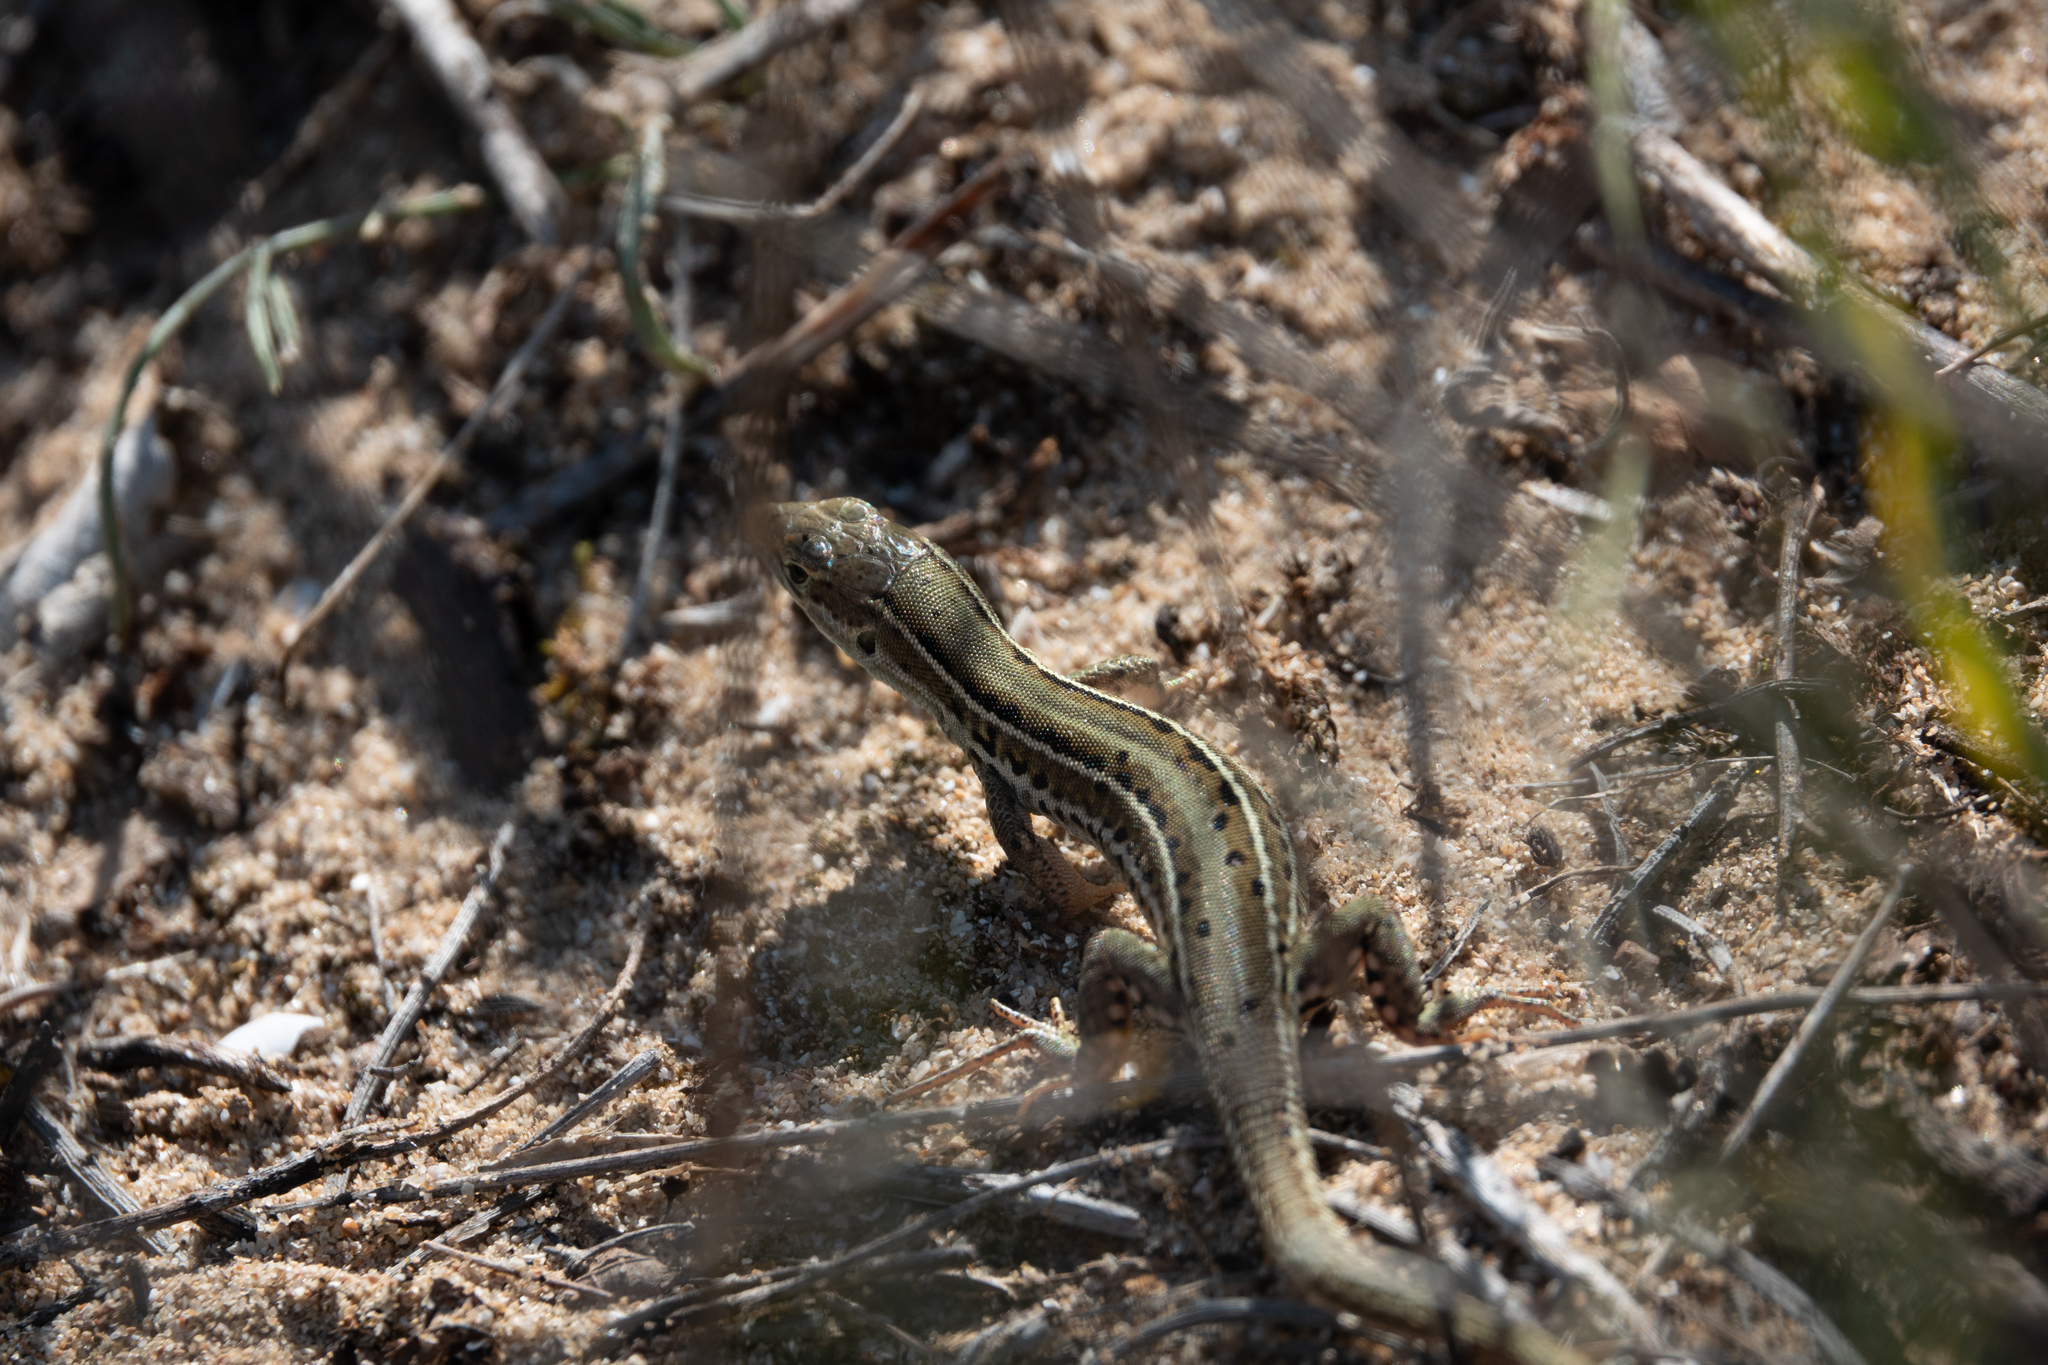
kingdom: Animalia
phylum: Chordata
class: Squamata
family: Lacertidae
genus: Podarcis
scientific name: Podarcis tauricus
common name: Balkan wall lizard
